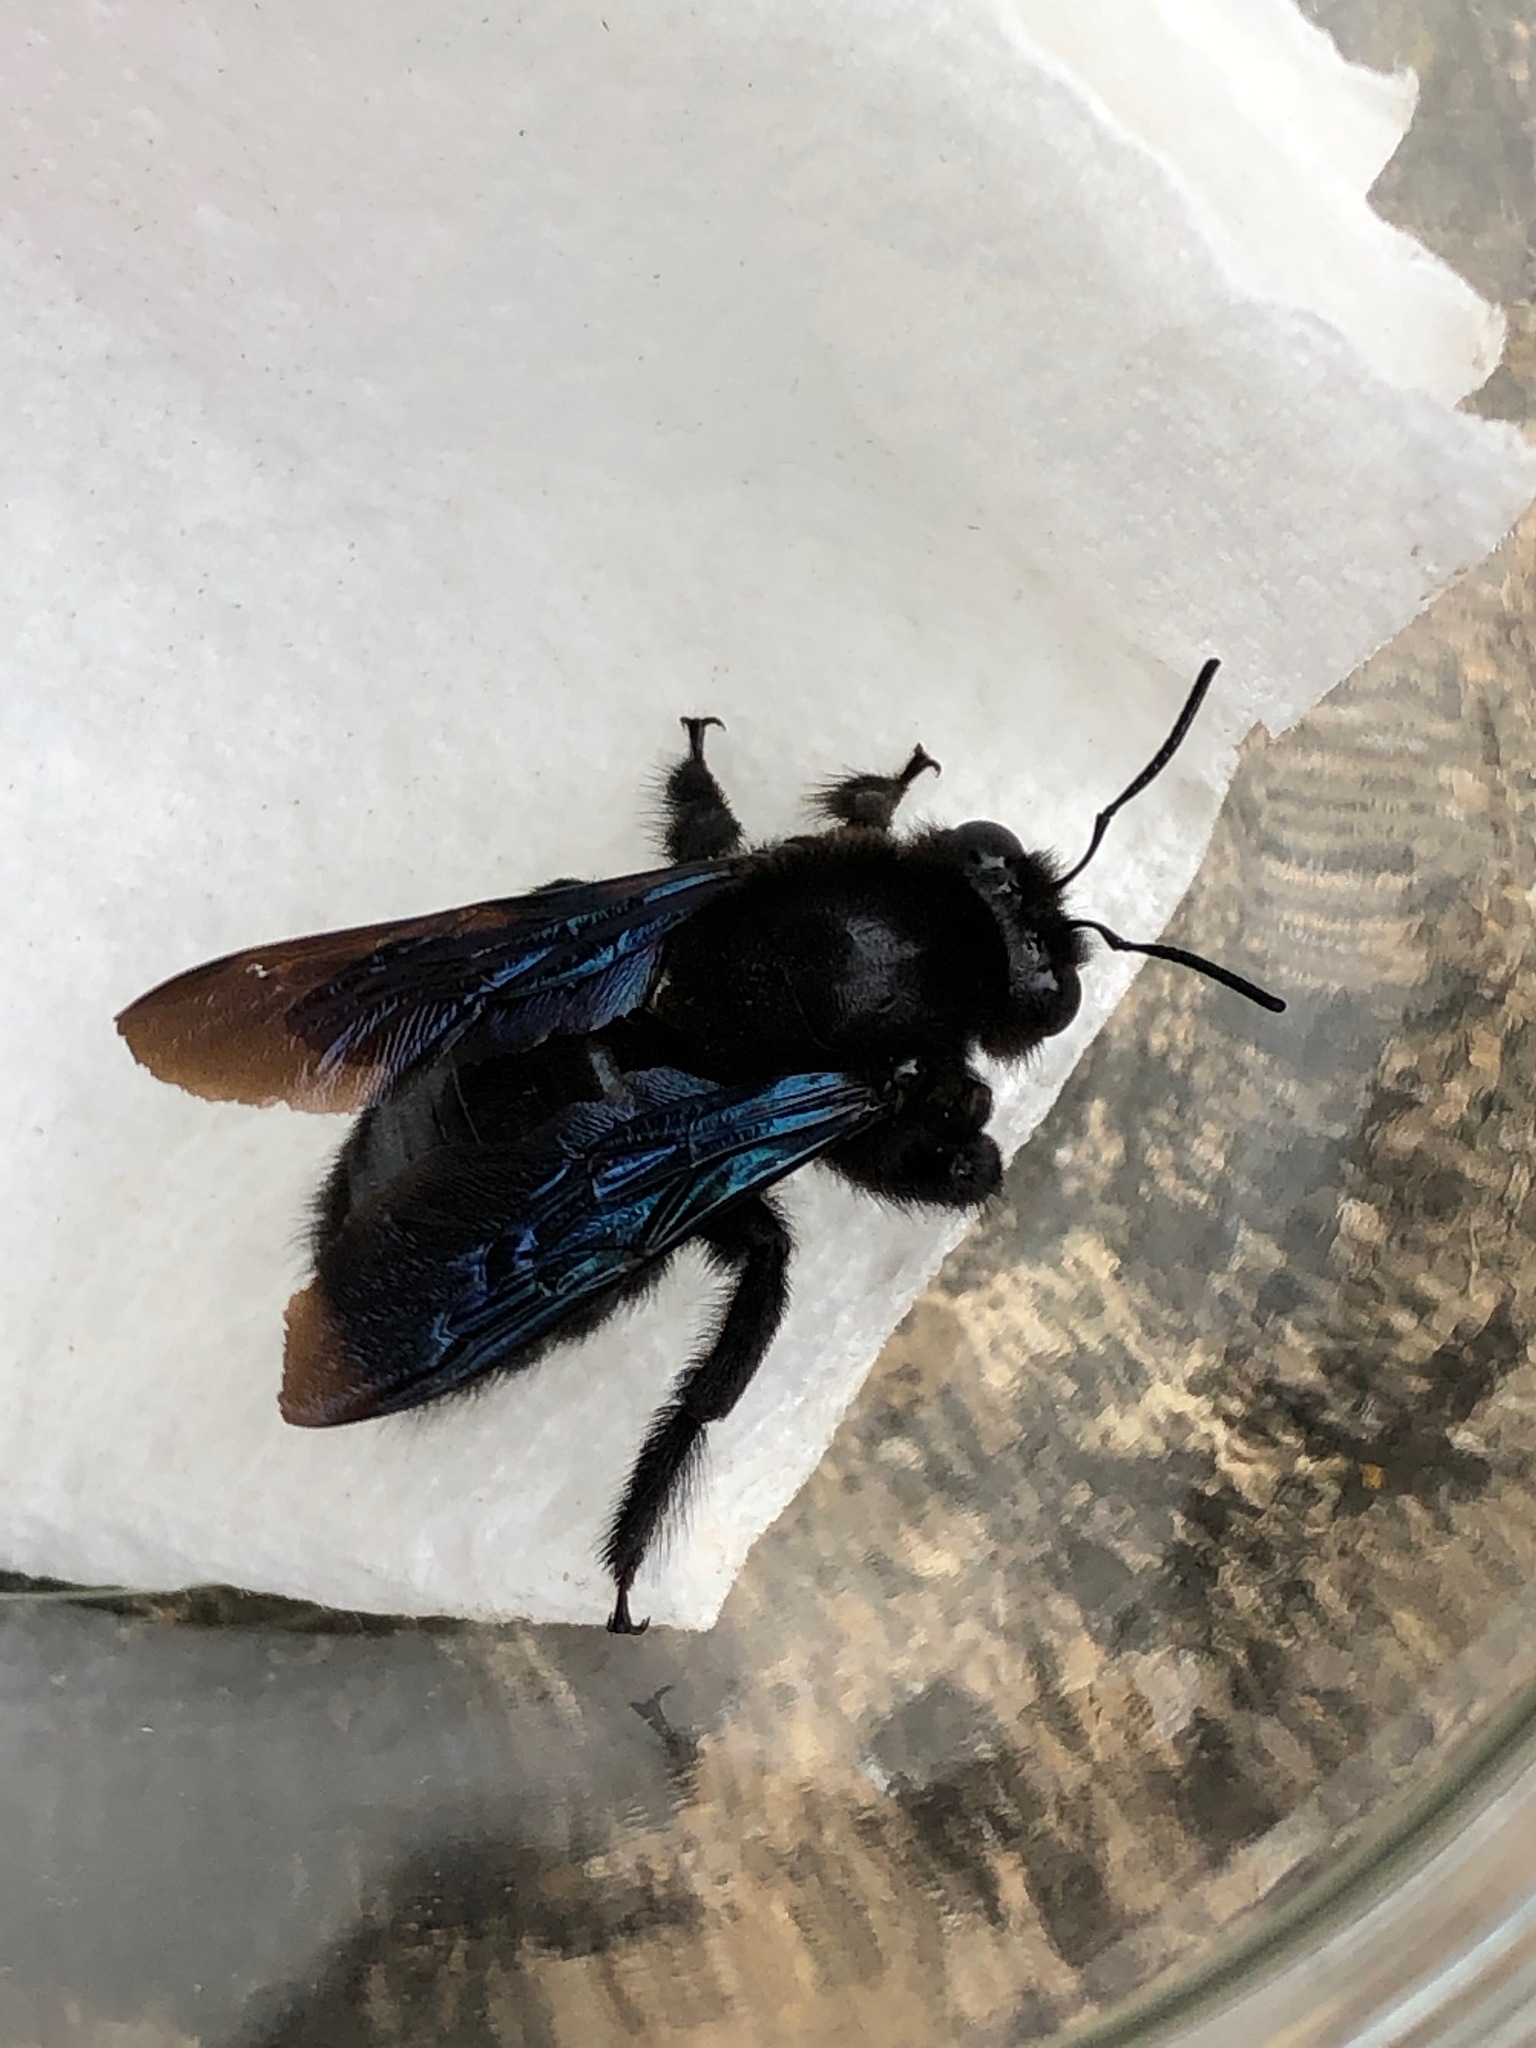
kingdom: Animalia
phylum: Arthropoda
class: Insecta
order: Hymenoptera
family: Apidae
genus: Xylocopa
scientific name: Xylocopa valga
